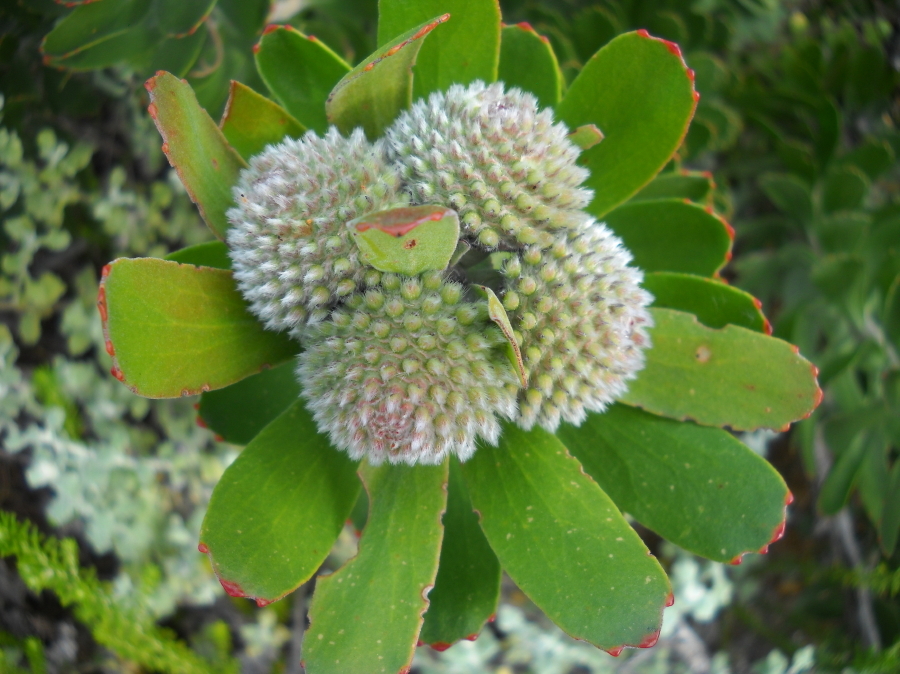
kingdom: Plantae
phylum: Tracheophyta
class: Magnoliopsida
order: Proteales
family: Proteaceae
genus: Leucospermum
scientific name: Leucospermum praecox
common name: Mossel bay pincushion
